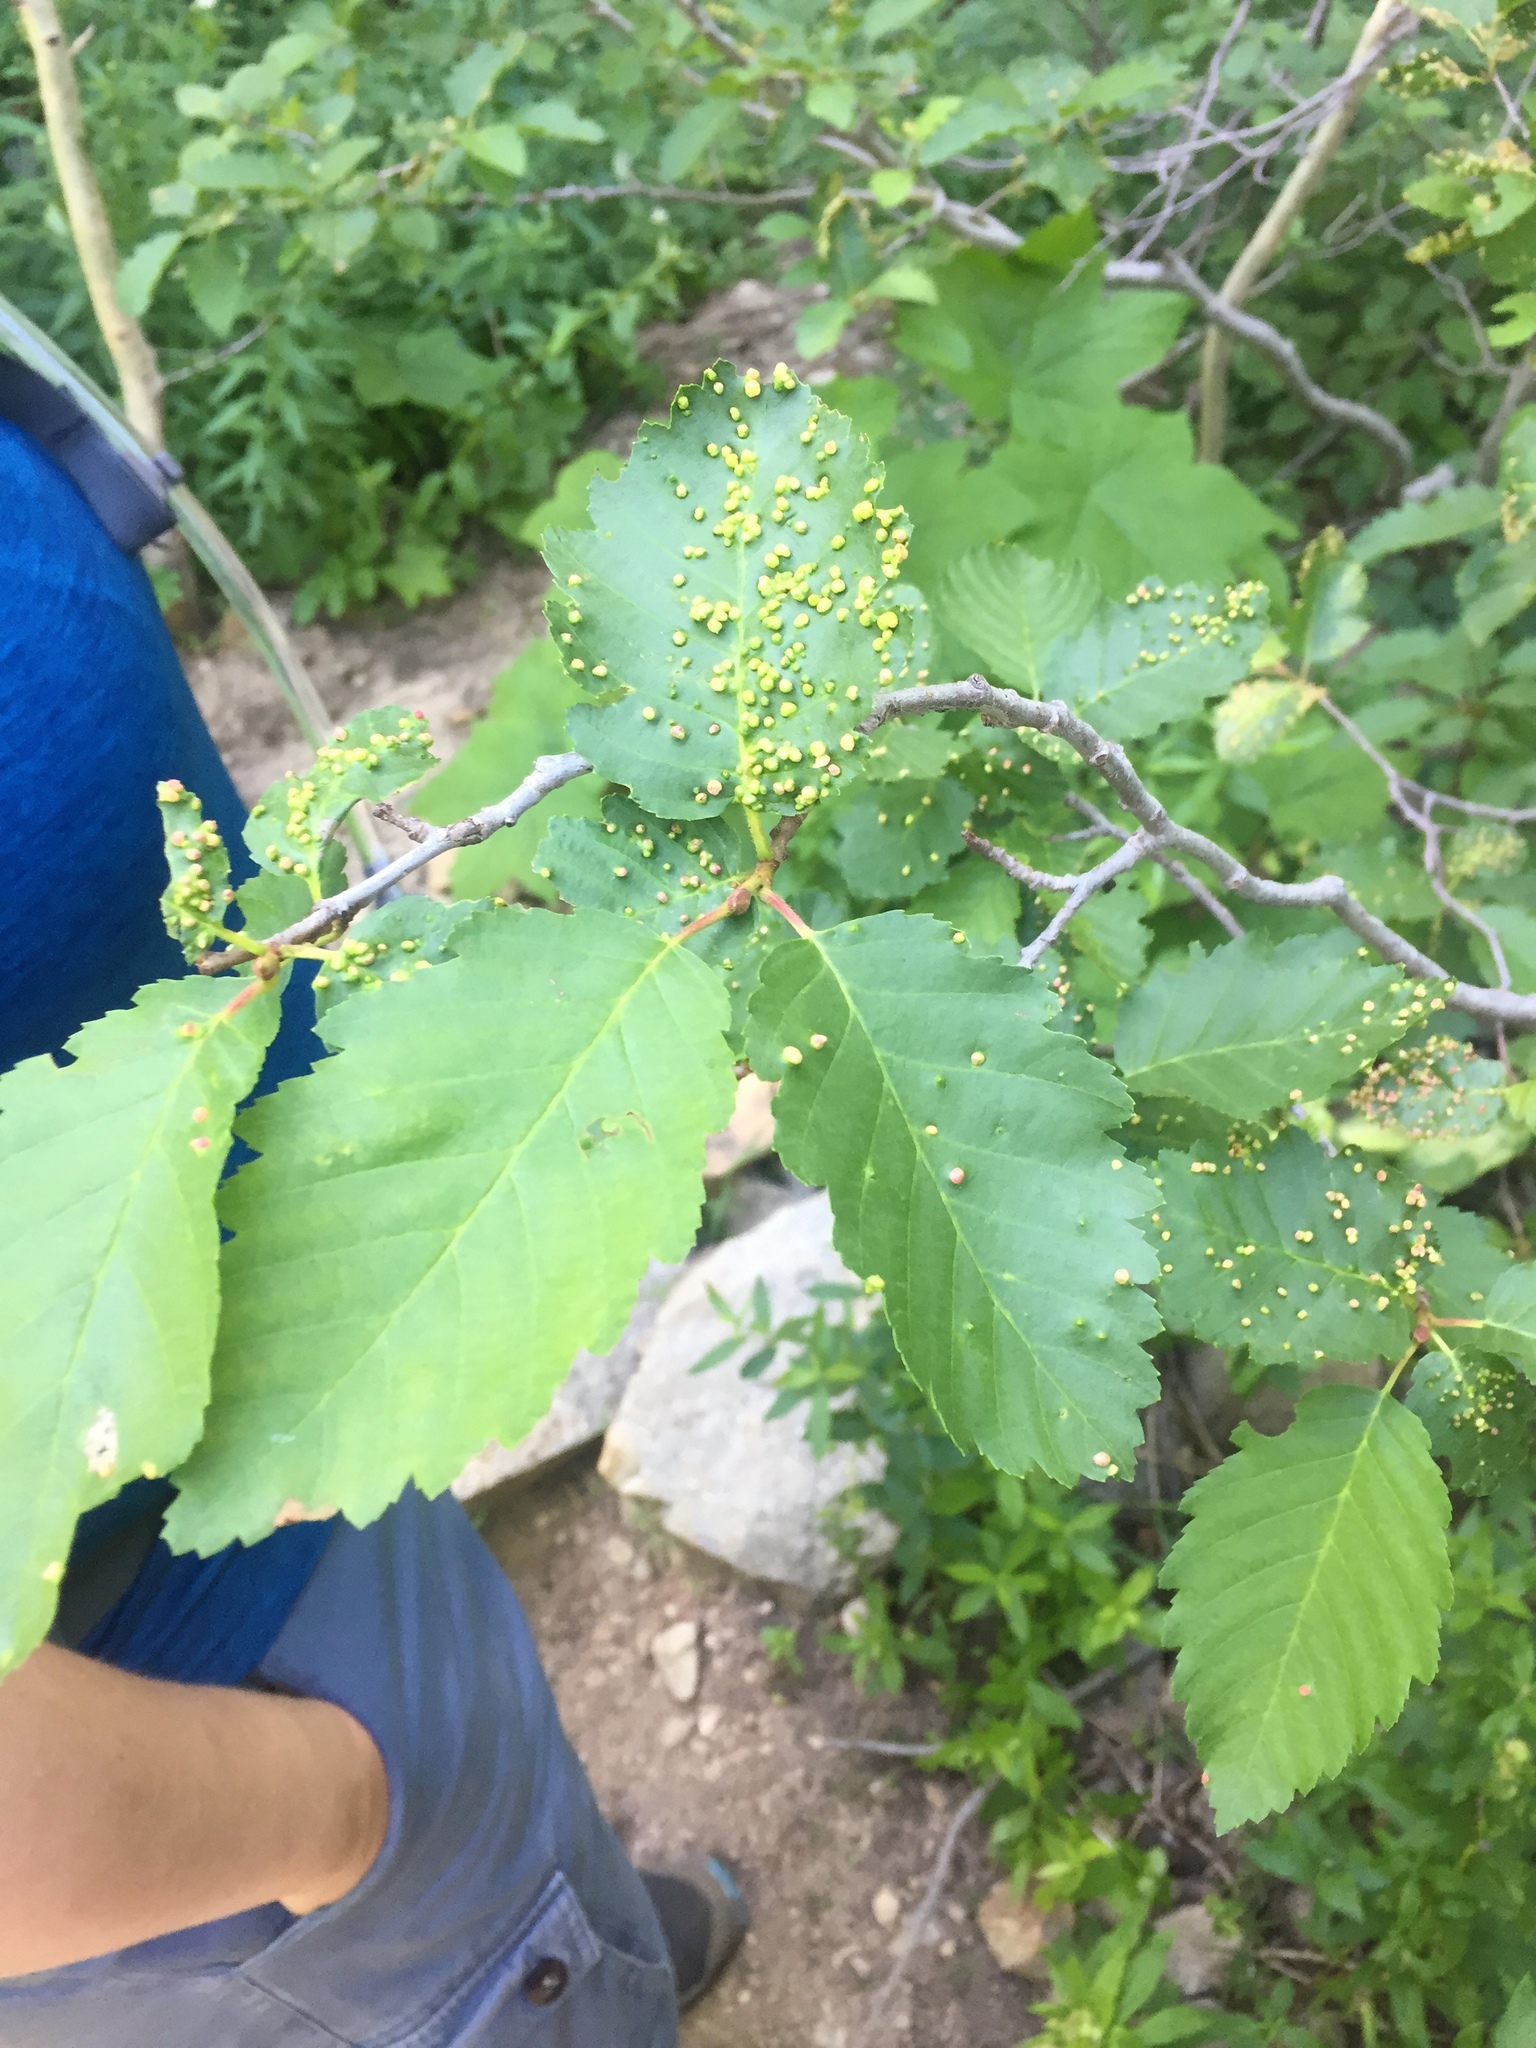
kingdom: Animalia
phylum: Arthropoda
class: Arachnida
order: Trombidiformes
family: Eriophyidae
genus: Eriophyes
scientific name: Eriophyes laevis
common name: Alder leaf gall mite
